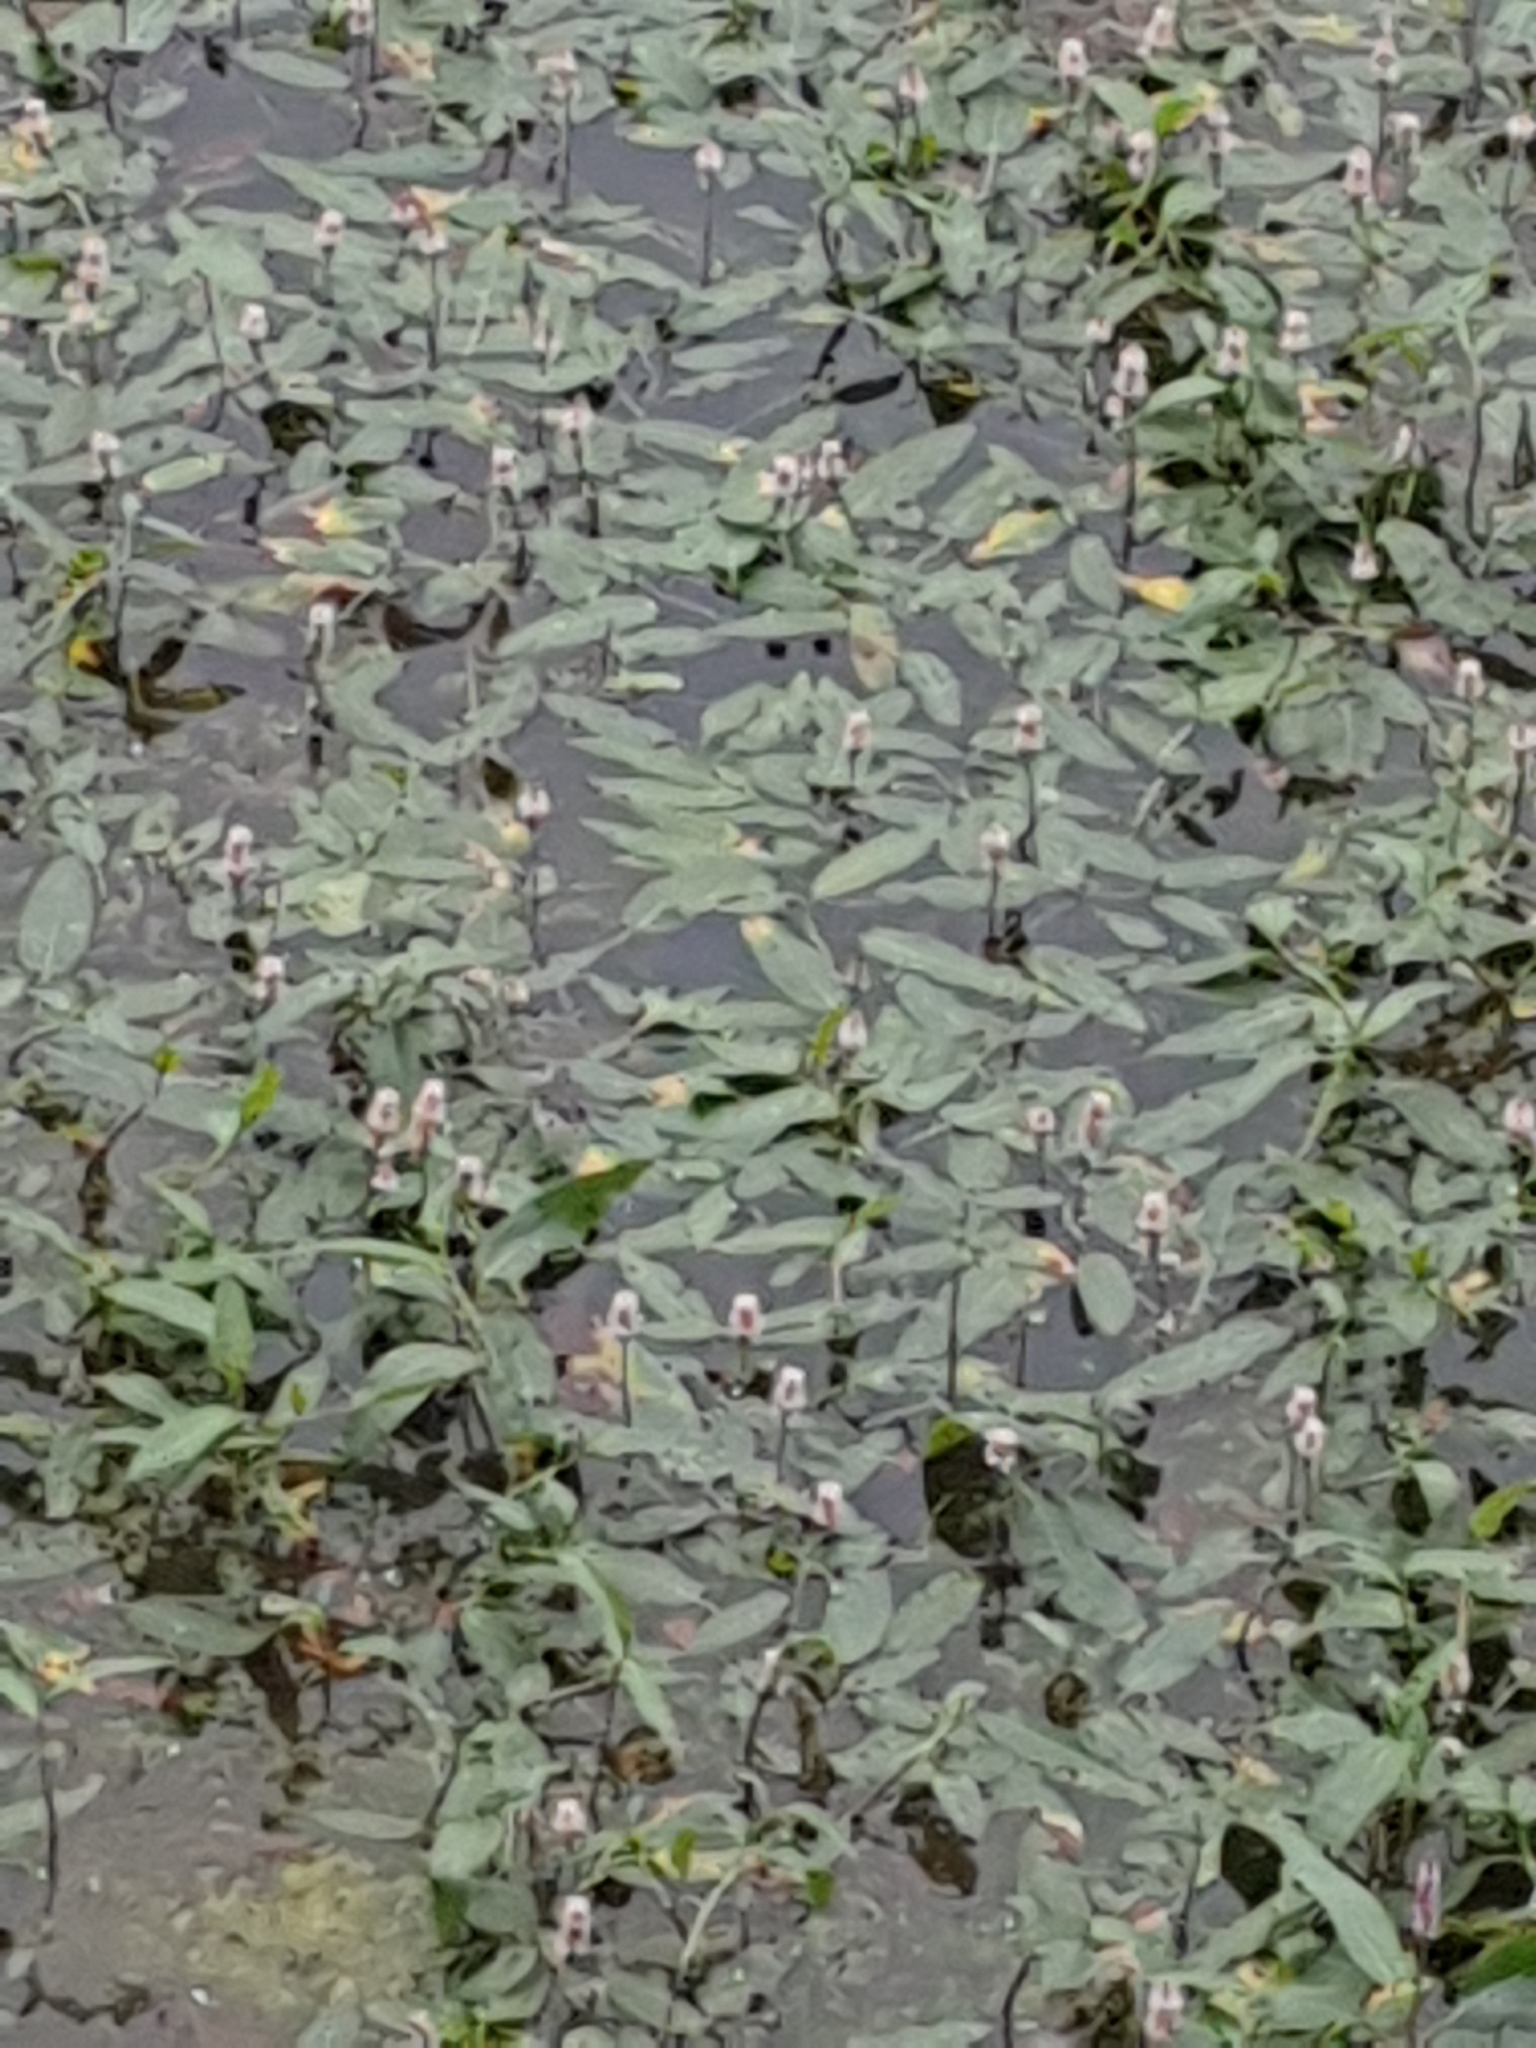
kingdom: Plantae
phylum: Tracheophyta
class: Magnoliopsida
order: Caryophyllales
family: Polygonaceae
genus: Persicaria
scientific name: Persicaria amphibia
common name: Amphibious bistort
